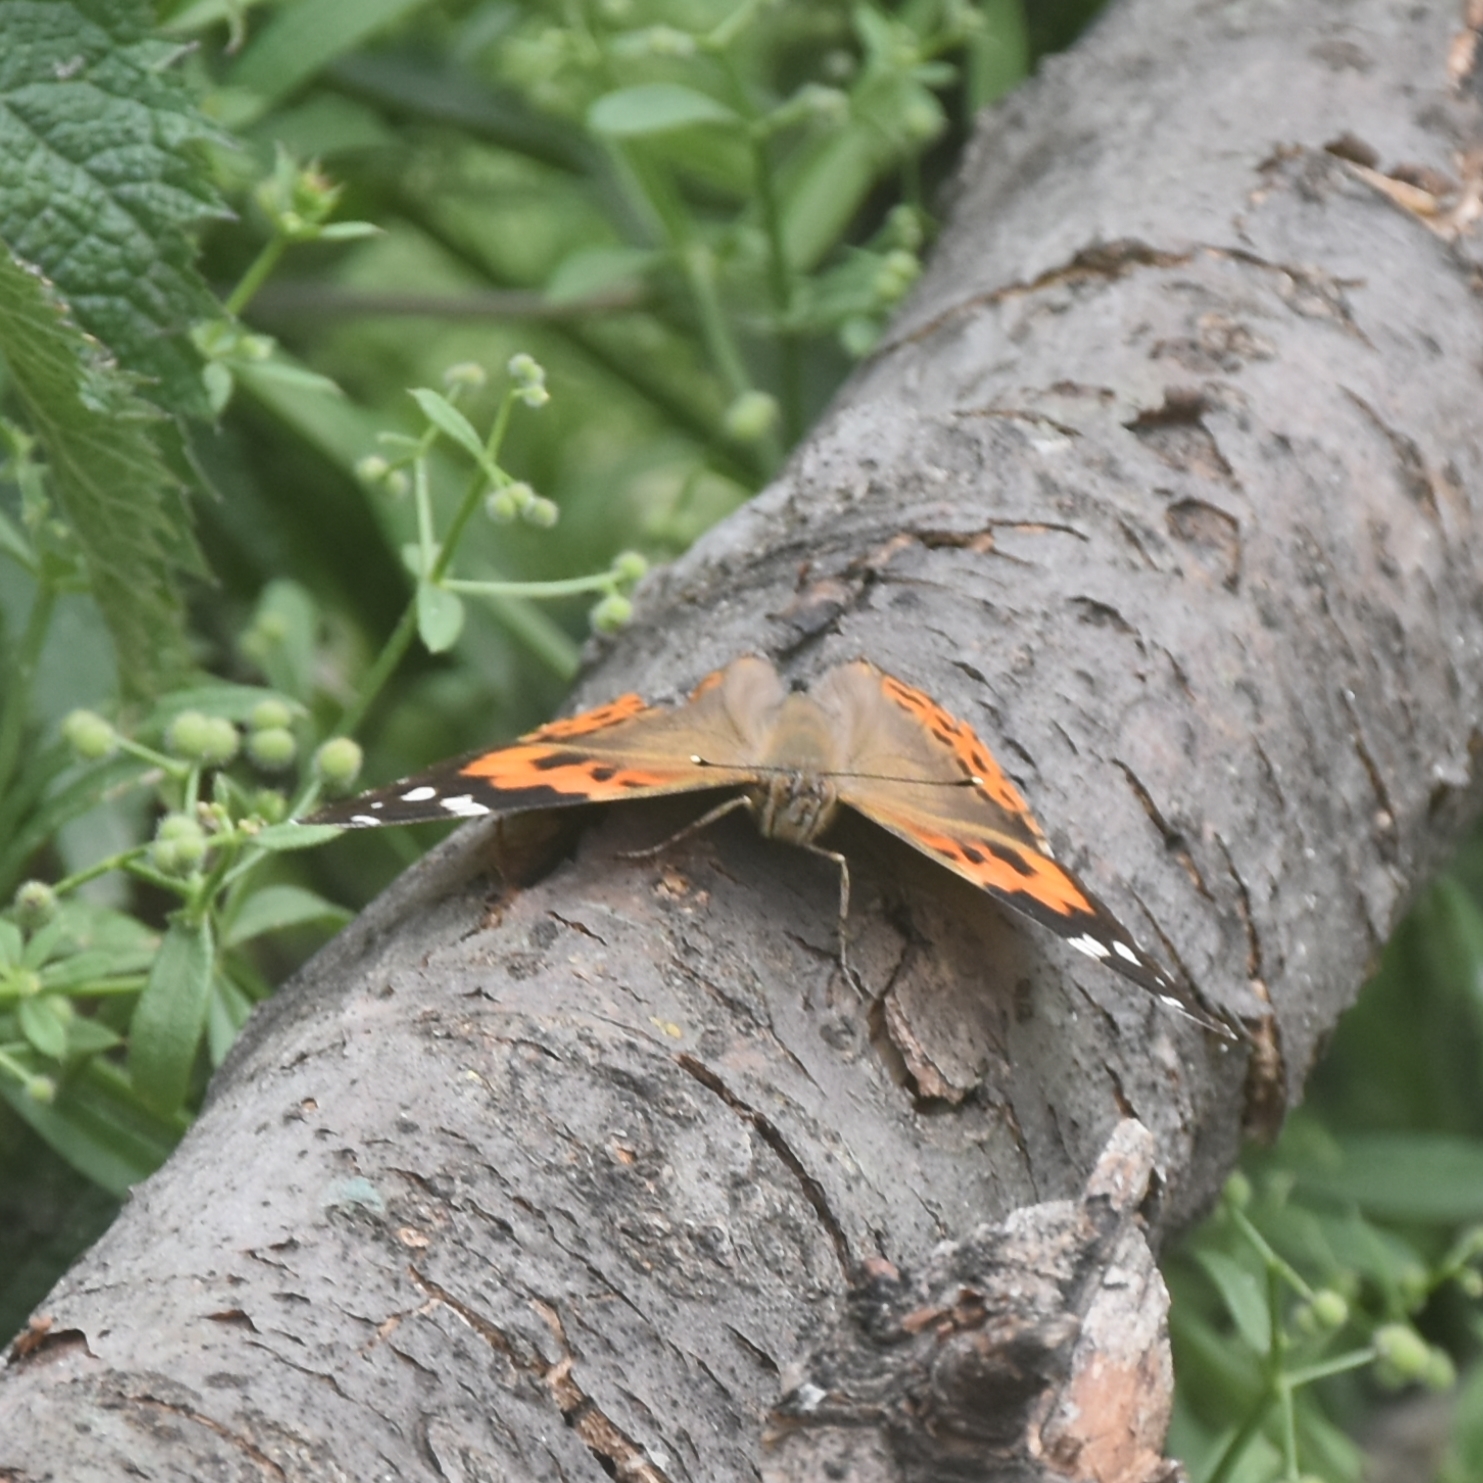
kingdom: Animalia
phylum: Arthropoda
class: Insecta
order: Lepidoptera
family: Nymphalidae
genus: Vanessa
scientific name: Vanessa indica
